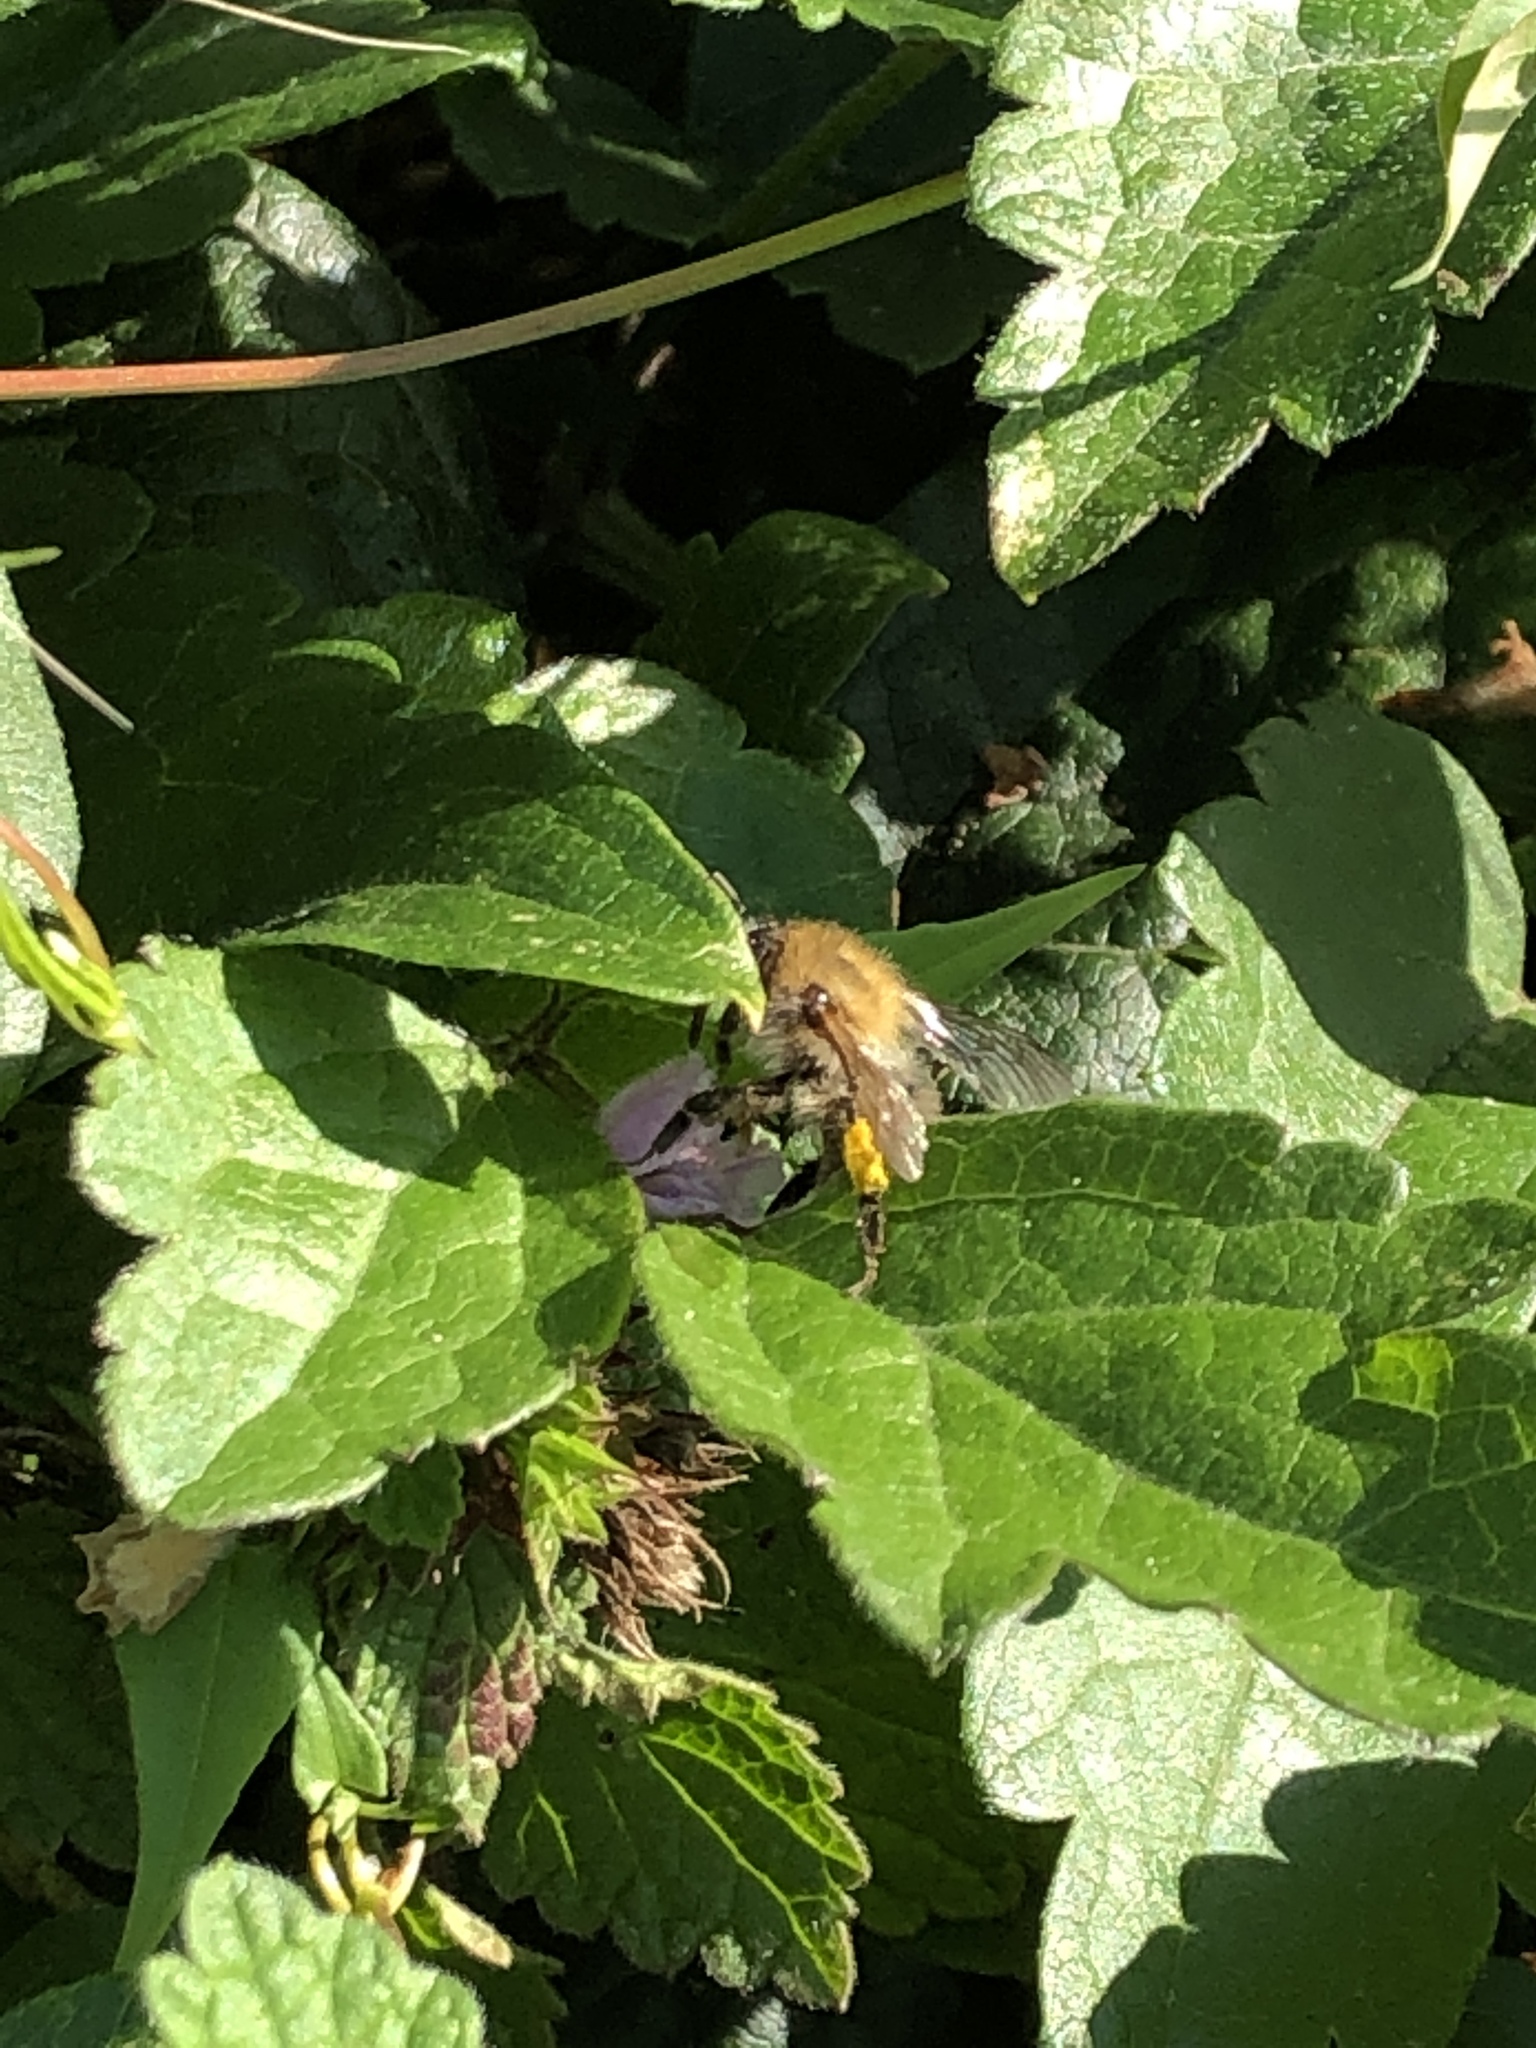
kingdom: Animalia
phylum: Arthropoda
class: Insecta
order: Hymenoptera
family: Apidae
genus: Bombus
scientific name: Bombus pascuorum
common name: Common carder bee
